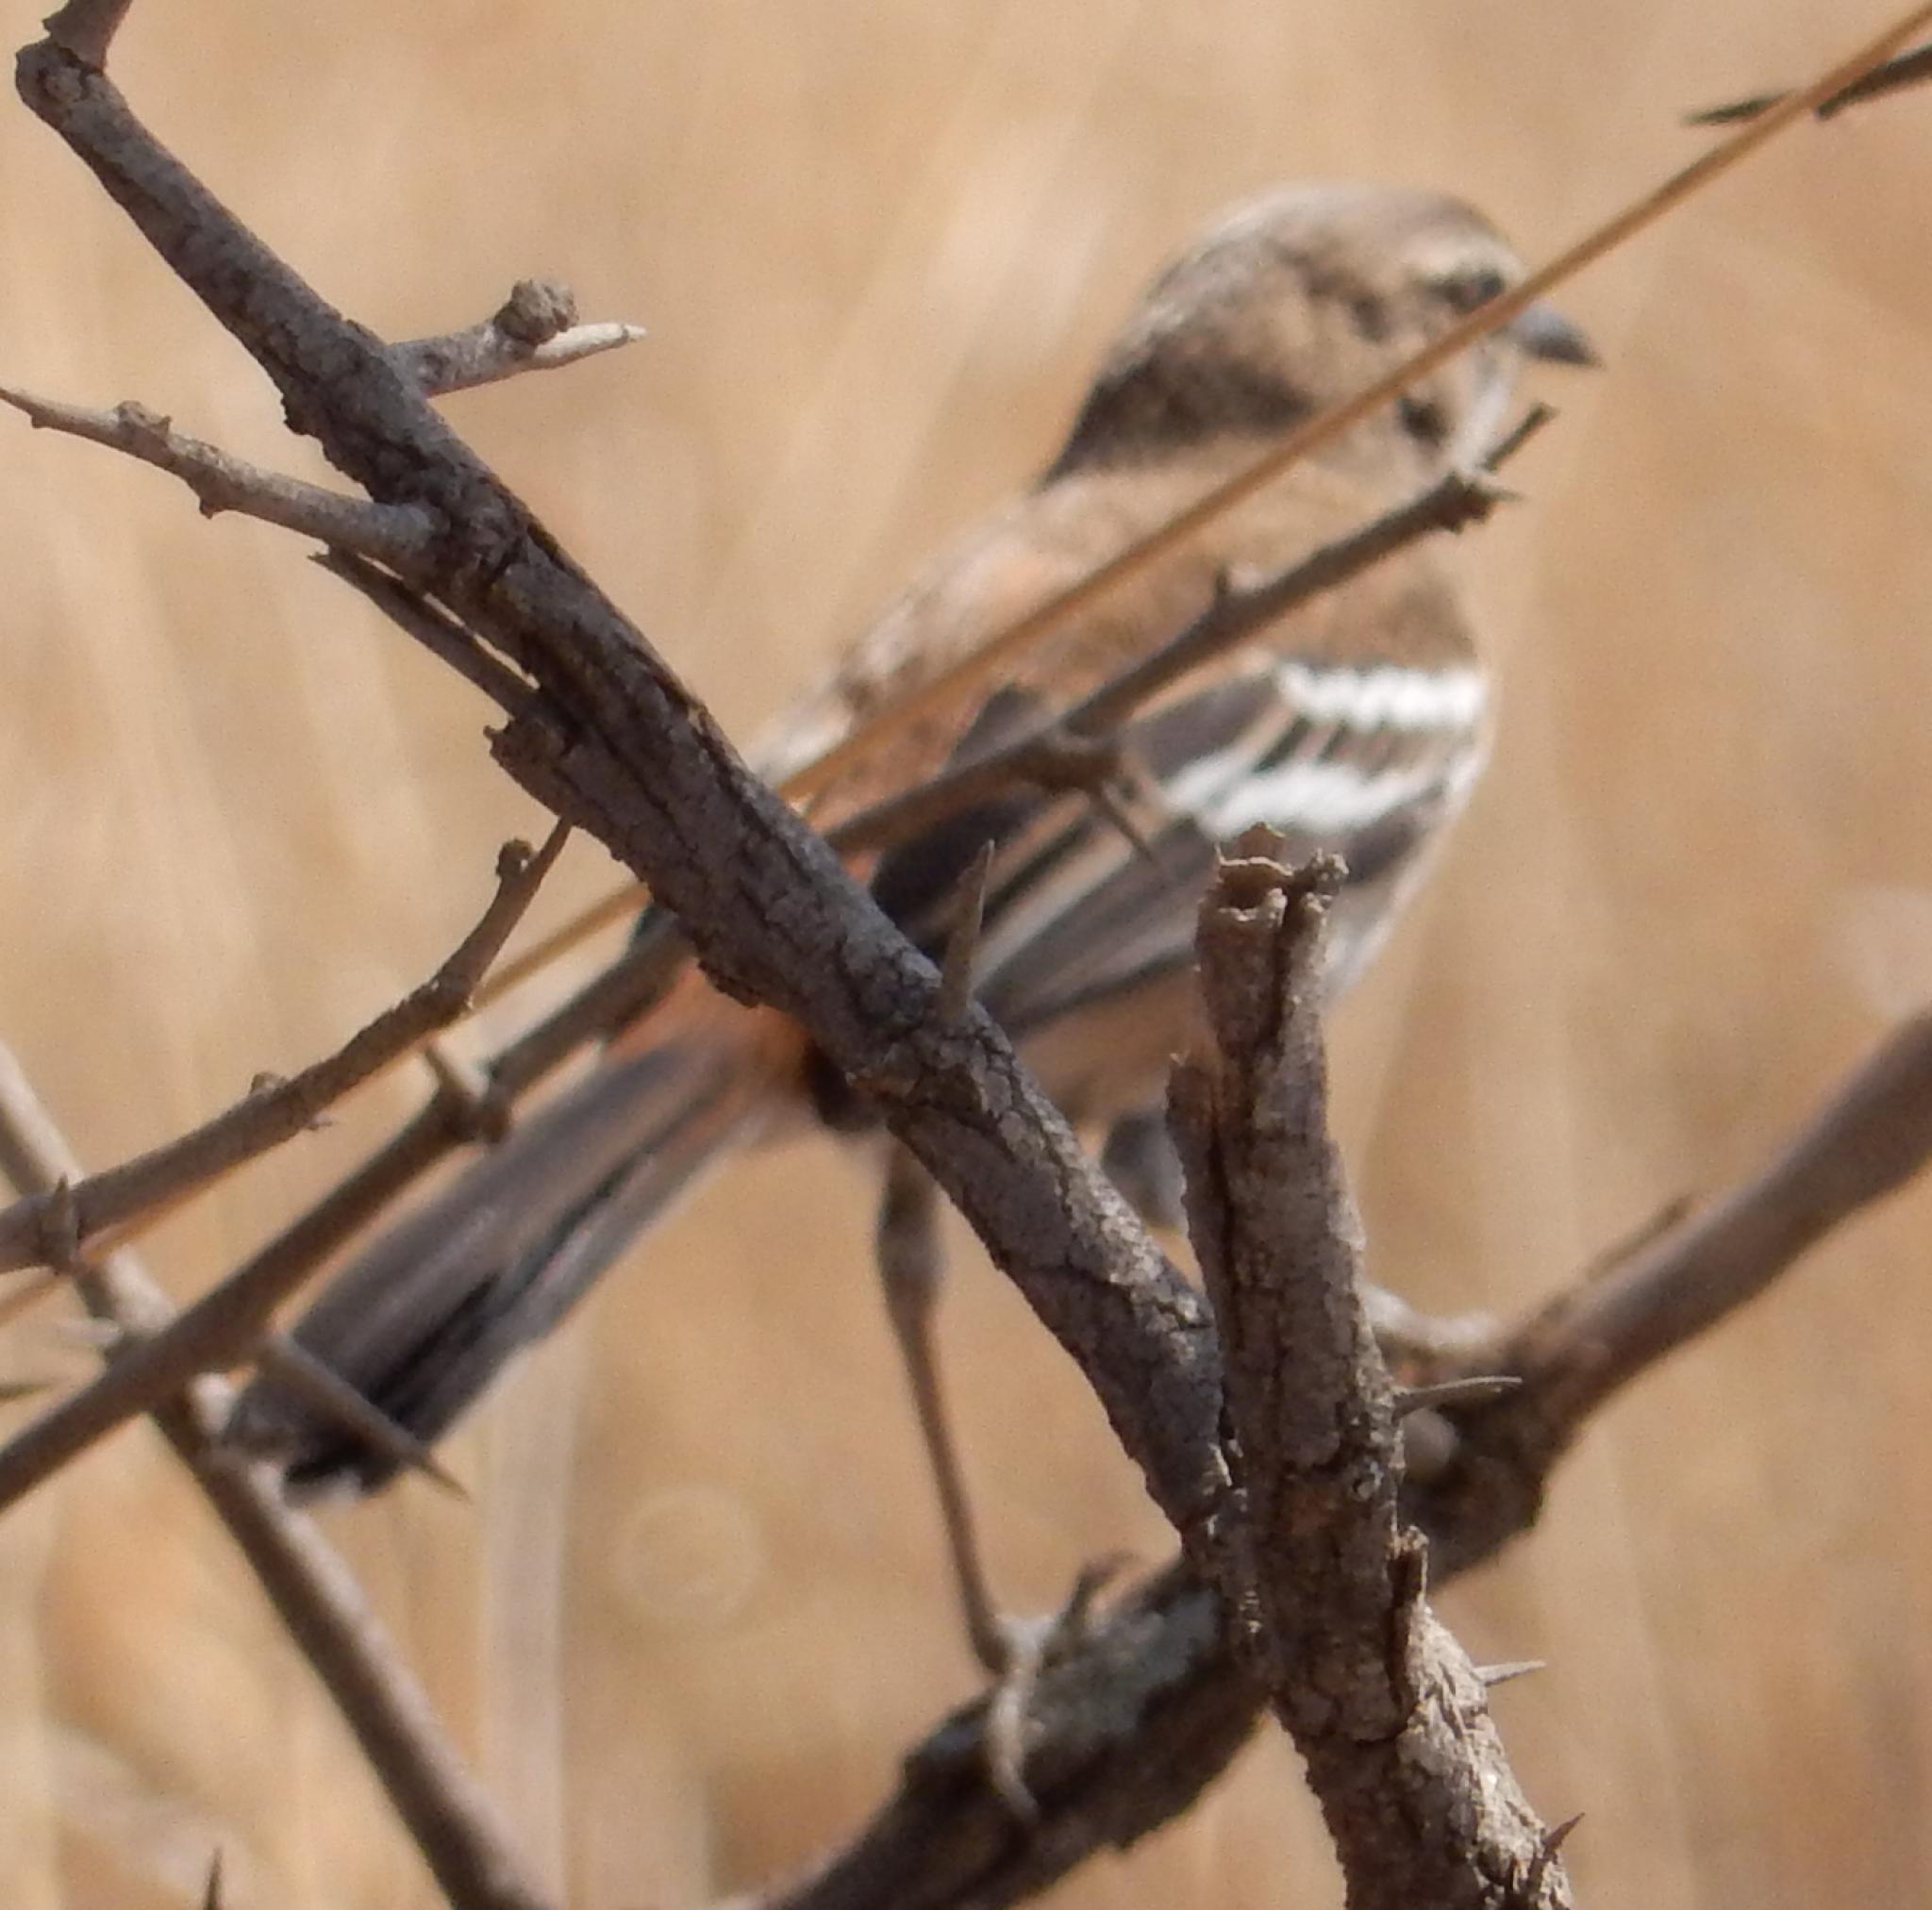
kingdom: Animalia
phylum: Chordata
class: Aves
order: Passeriformes
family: Muscicapidae
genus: Erythropygia
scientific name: Erythropygia leucophrys
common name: White-browed scrub robin
